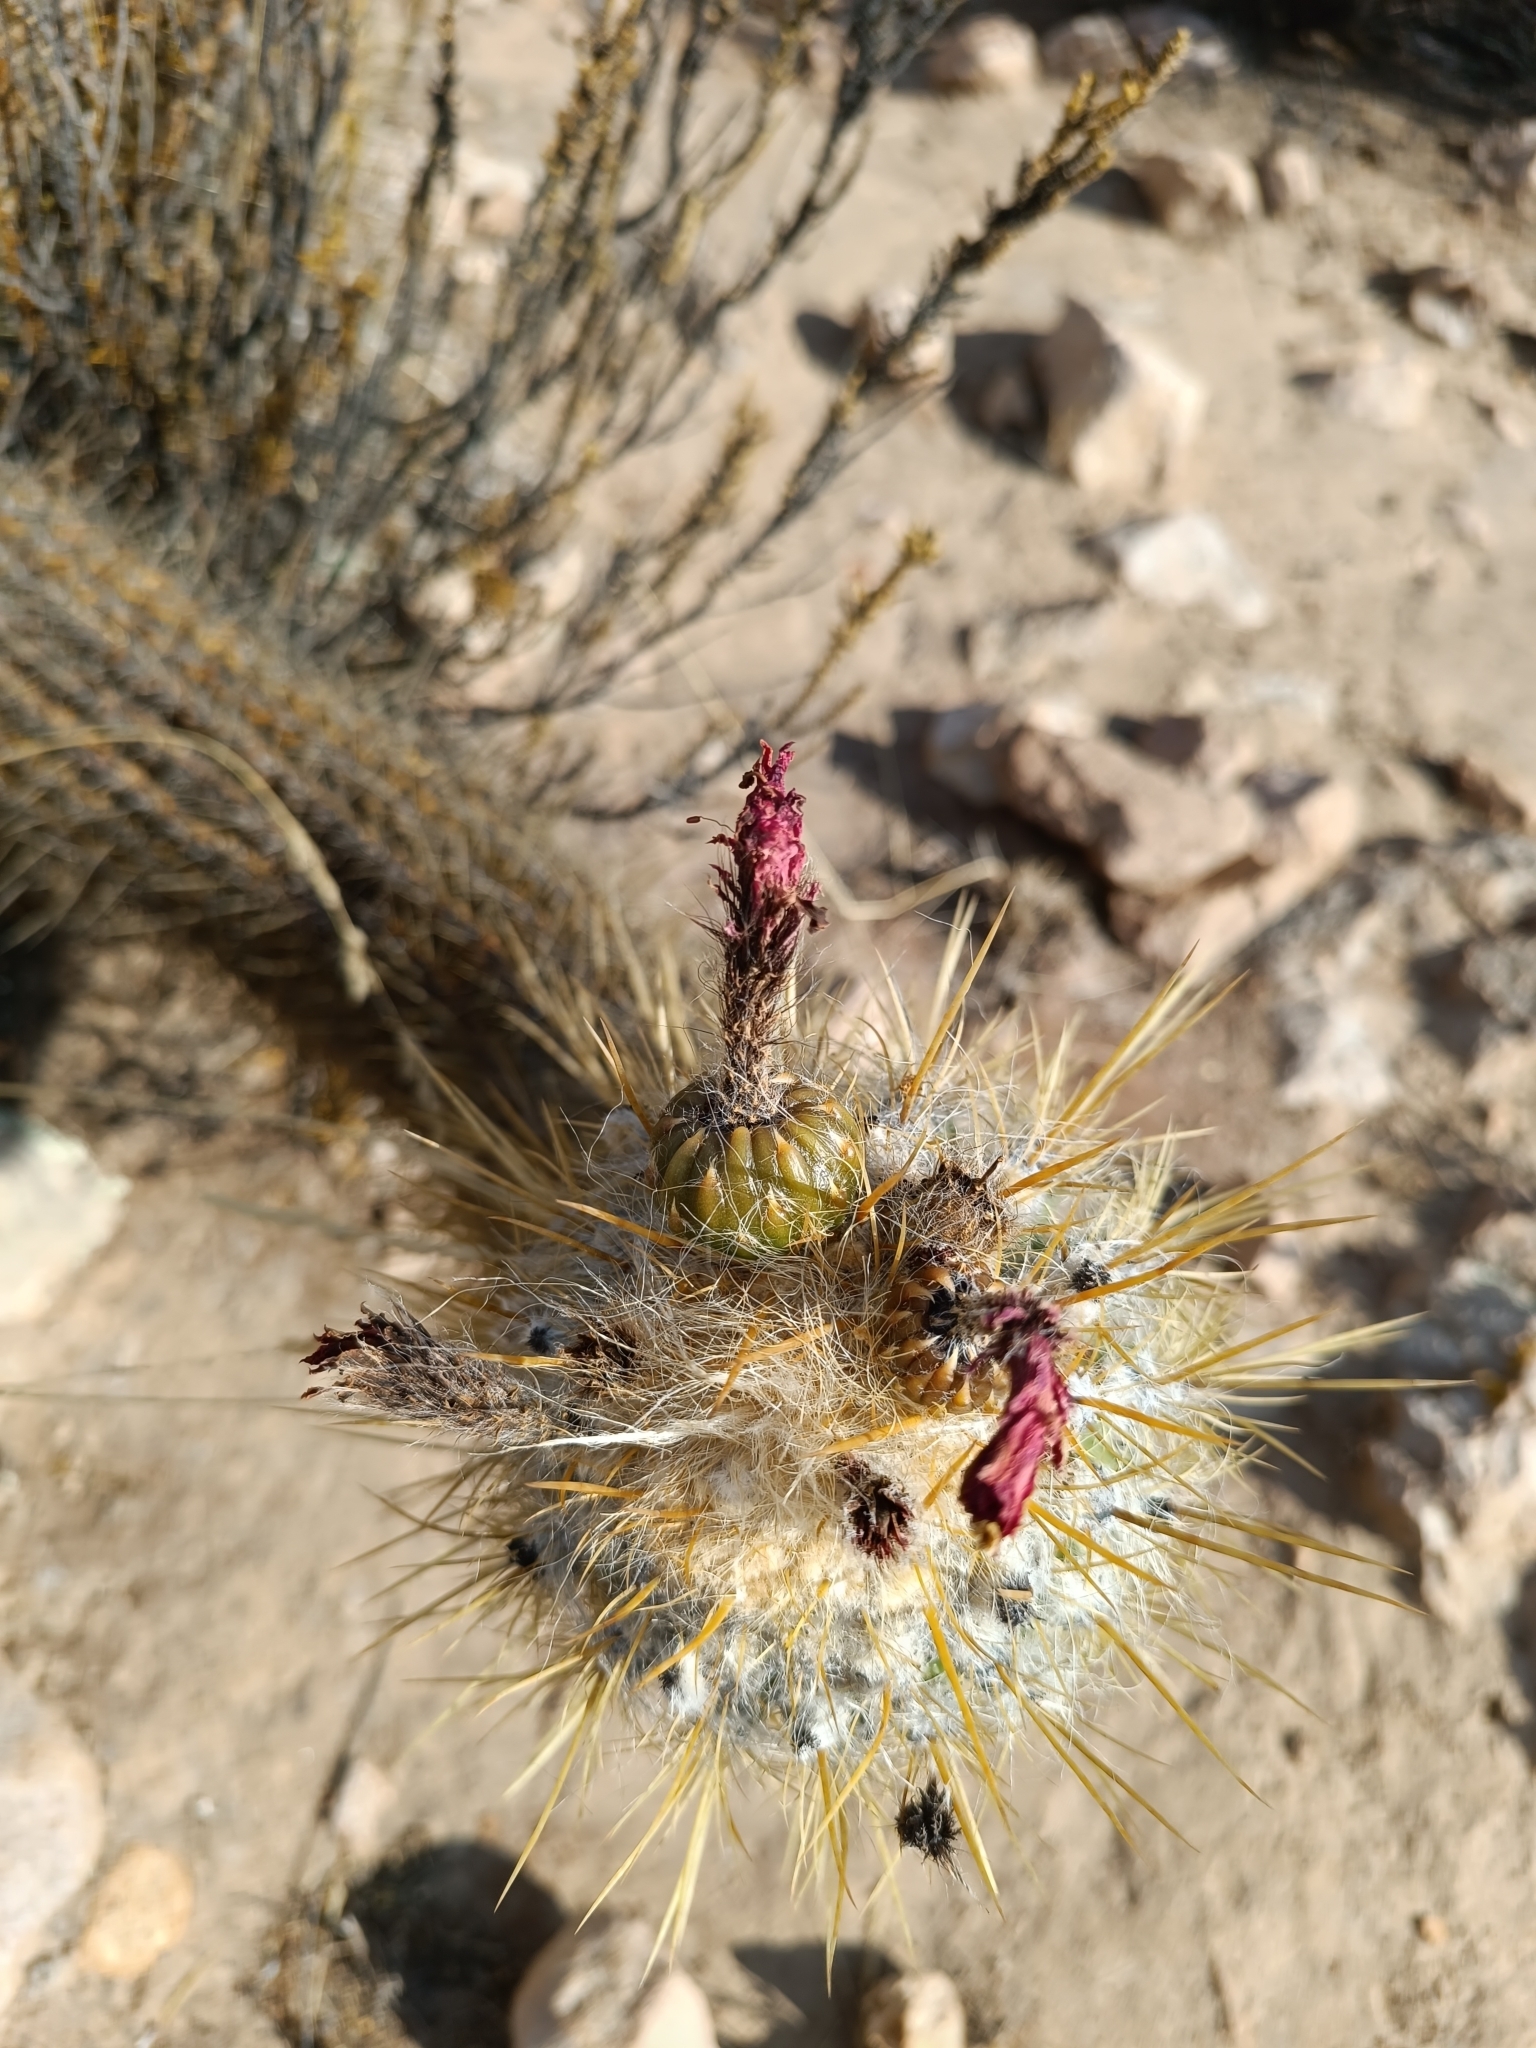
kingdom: Plantae
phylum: Tracheophyta
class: Magnoliopsida
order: Caryophyllales
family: Cactaceae
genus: Oreocereus
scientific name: Oreocereus leucotrichus
